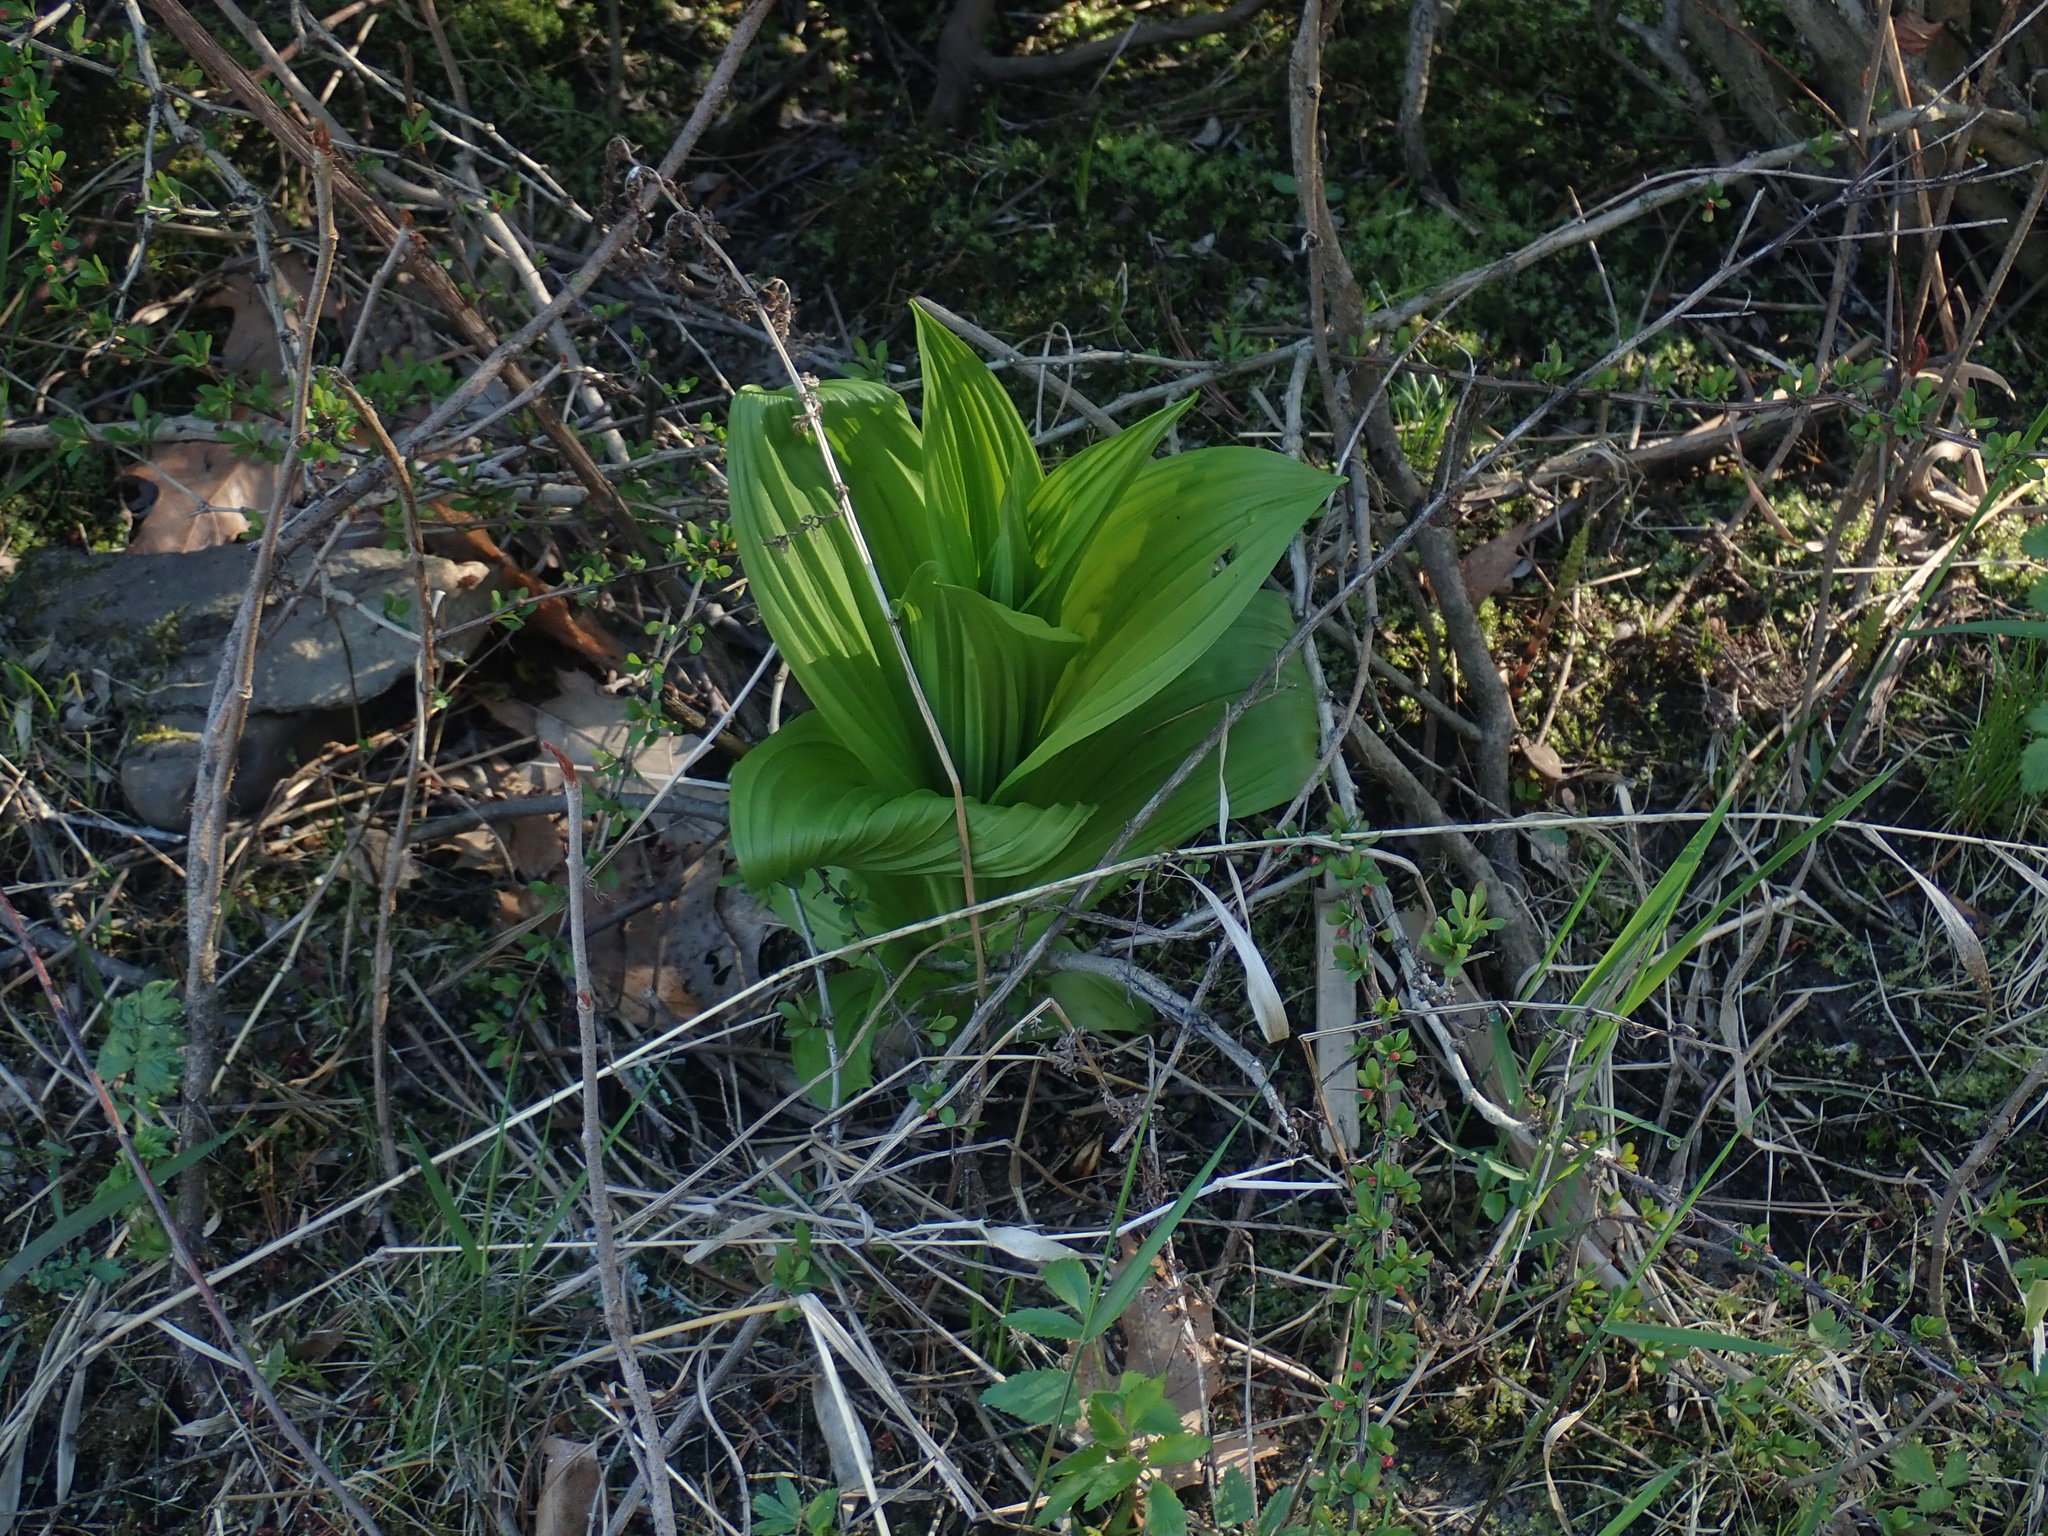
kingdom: Plantae
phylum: Tracheophyta
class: Liliopsida
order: Liliales
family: Melanthiaceae
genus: Veratrum
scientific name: Veratrum viride
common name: American false hellebore
